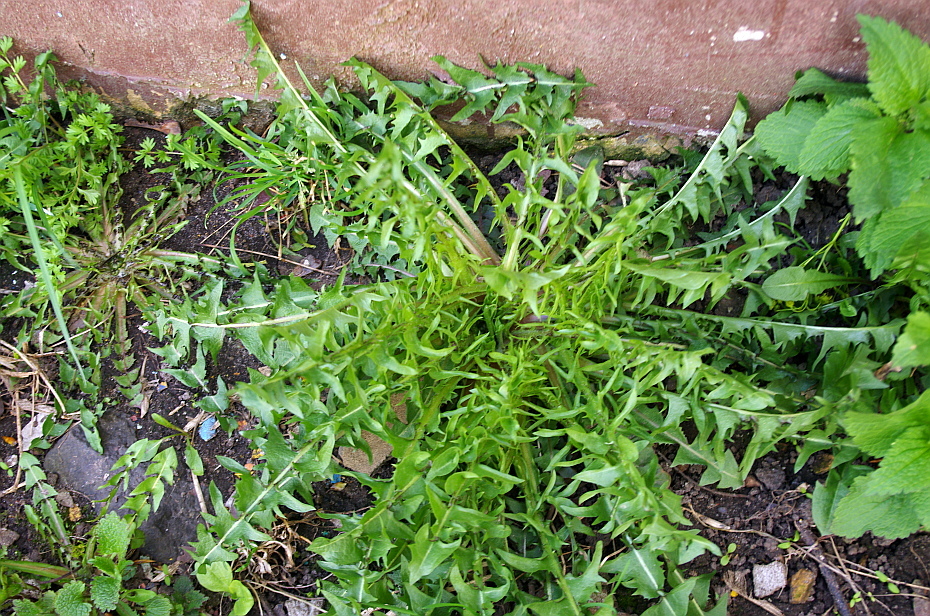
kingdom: Plantae
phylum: Tracheophyta
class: Magnoliopsida
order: Asterales
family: Asteraceae
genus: Taraxacum
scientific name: Taraxacum officinale
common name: Common dandelion
